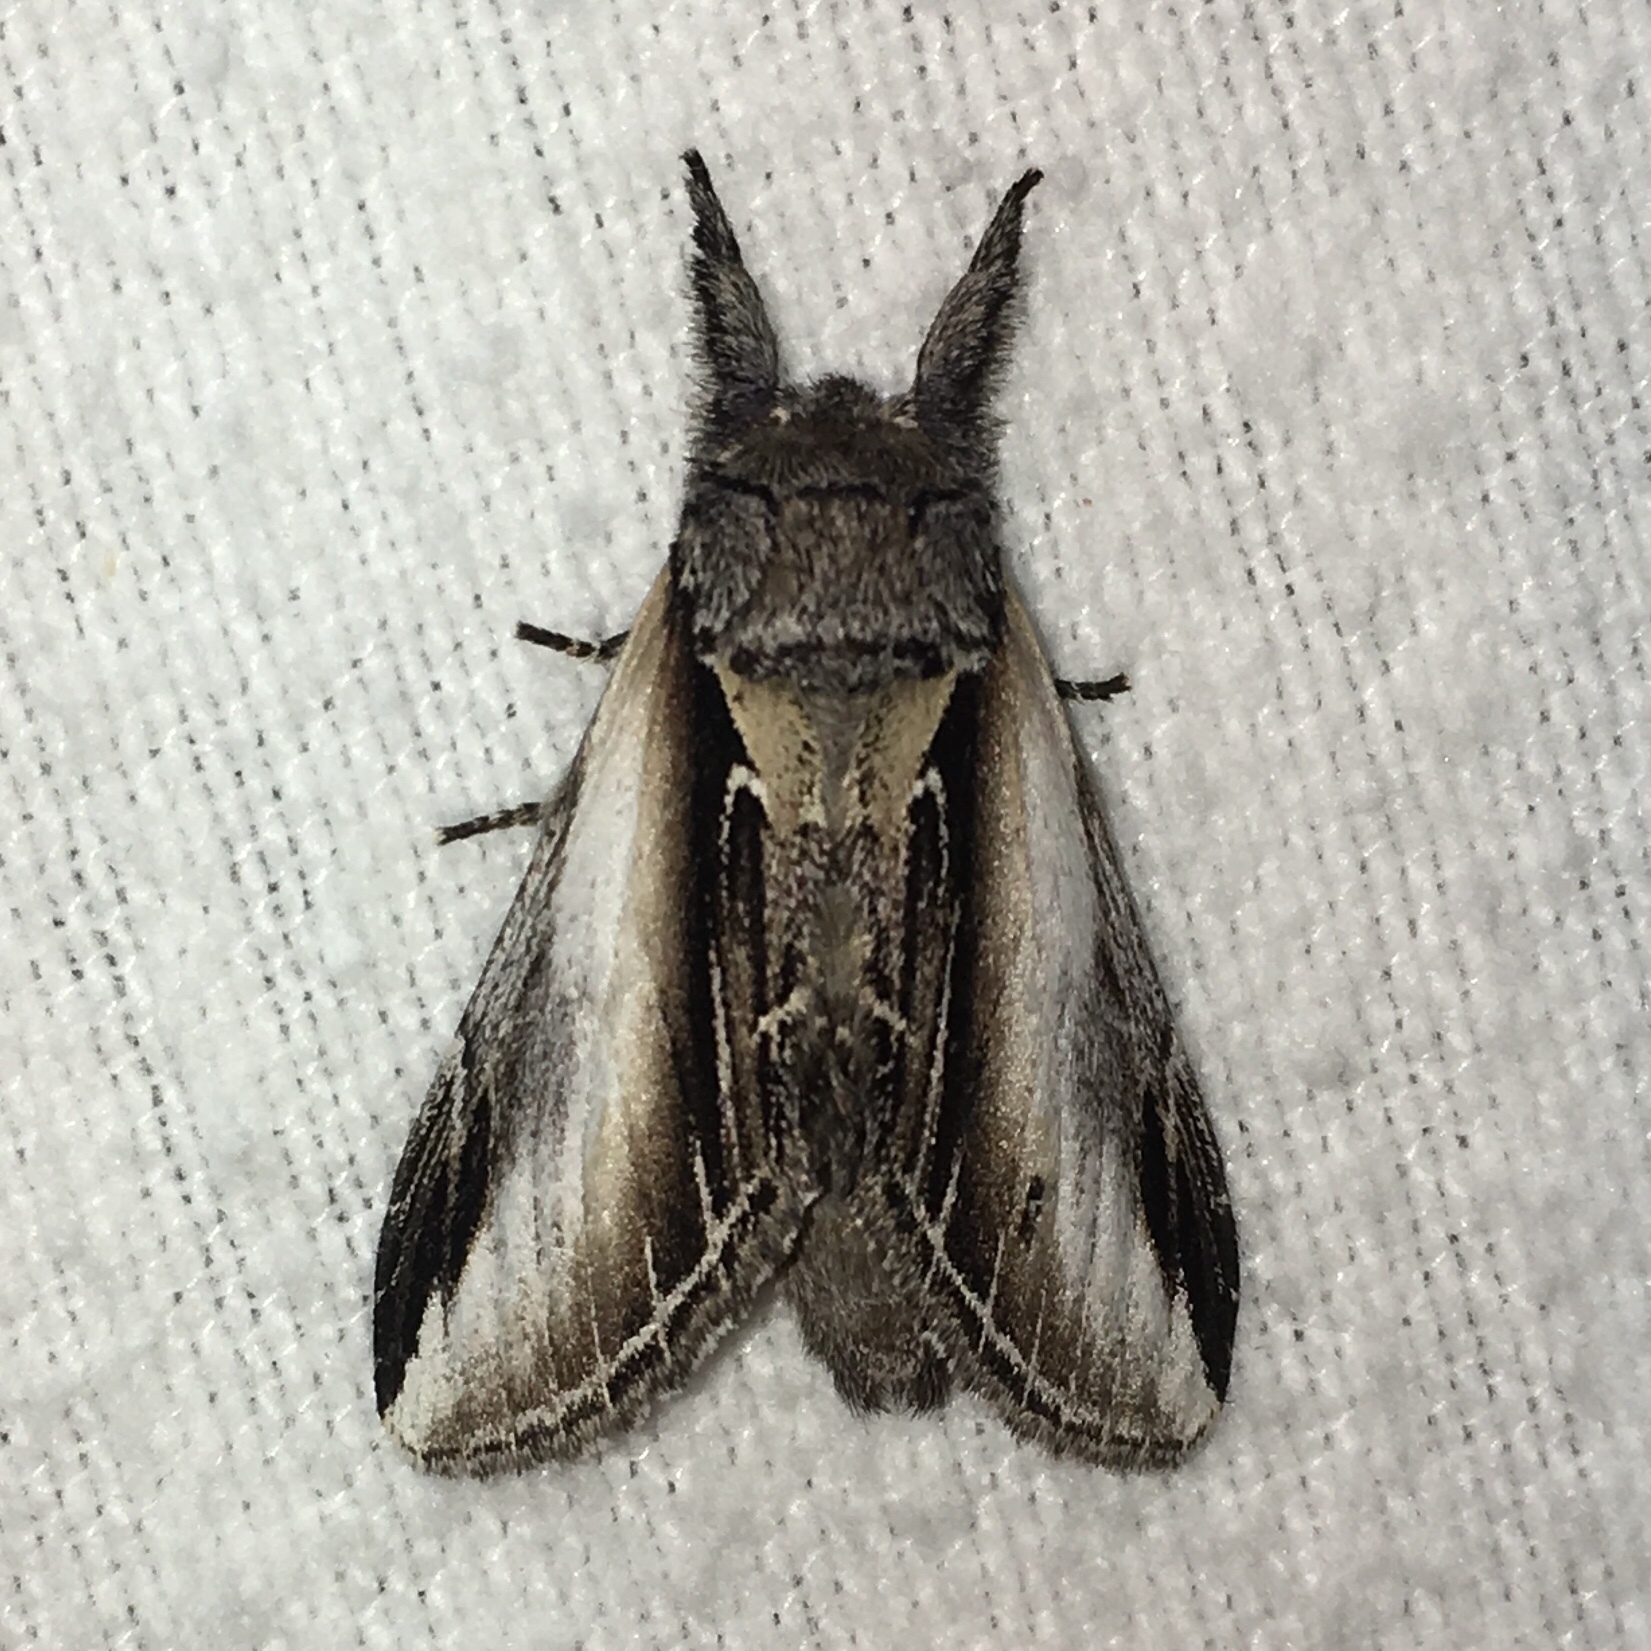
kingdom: Animalia
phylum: Arthropoda
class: Insecta
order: Lepidoptera
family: Notodontidae
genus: Pheosia
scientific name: Pheosia rimosa
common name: Black-rimmed prominent
